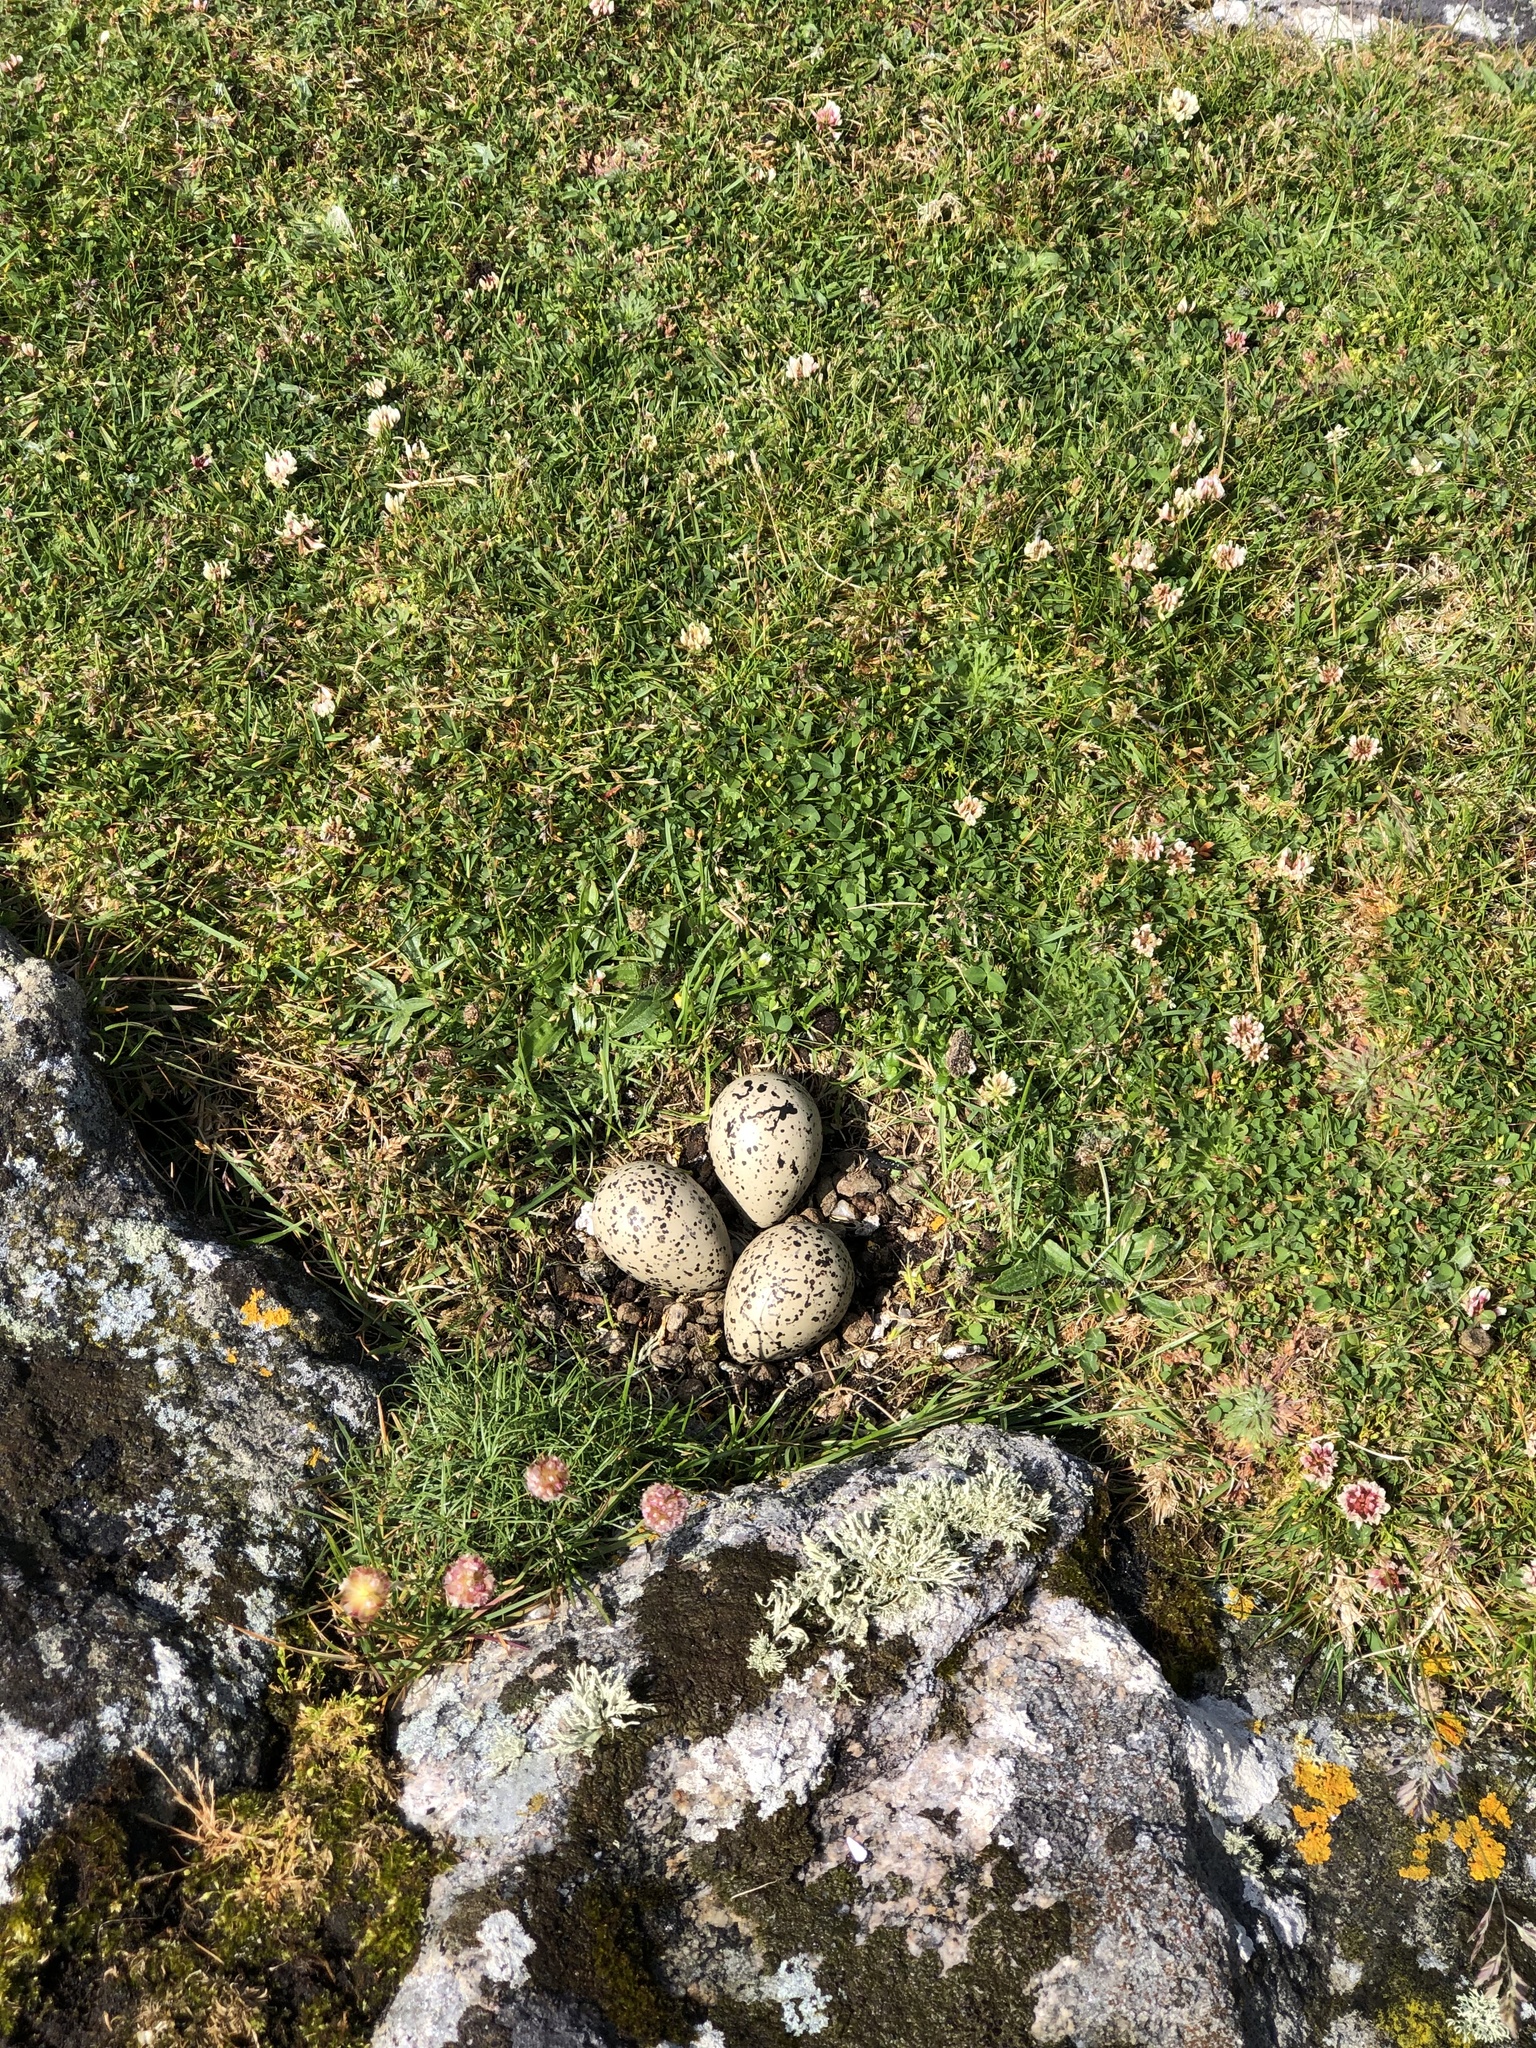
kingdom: Animalia
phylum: Chordata
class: Aves
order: Charadriiformes
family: Haematopodidae
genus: Haematopus
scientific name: Haematopus ostralegus
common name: Eurasian oystercatcher
